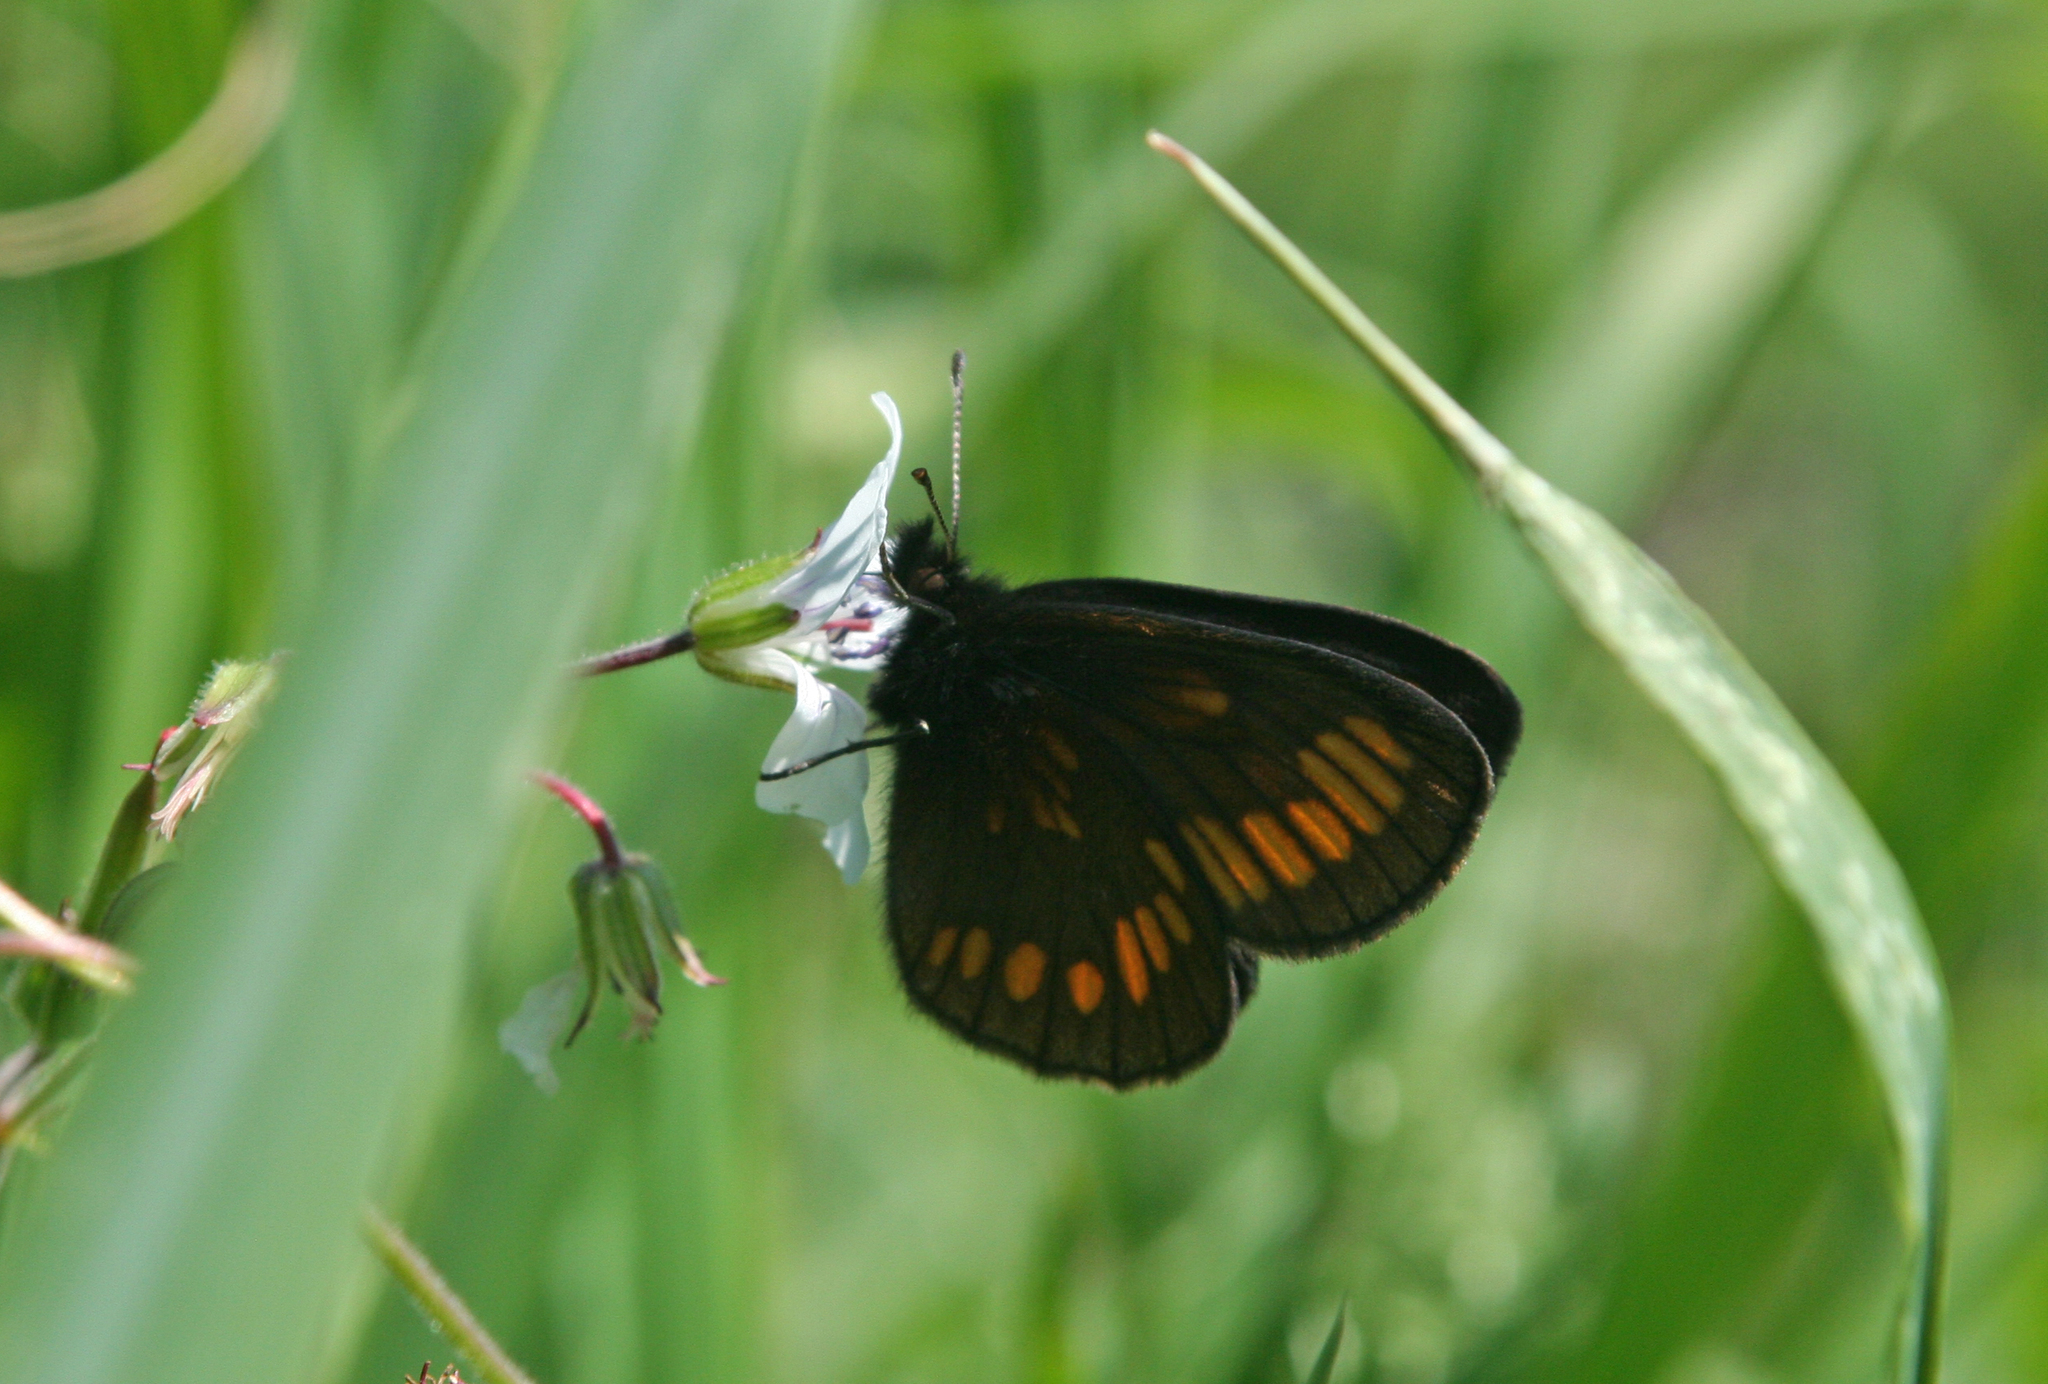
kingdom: Animalia
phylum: Arthropoda
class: Insecta
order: Lepidoptera
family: Nymphalidae
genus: Erebia
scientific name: Erebia maurisius
